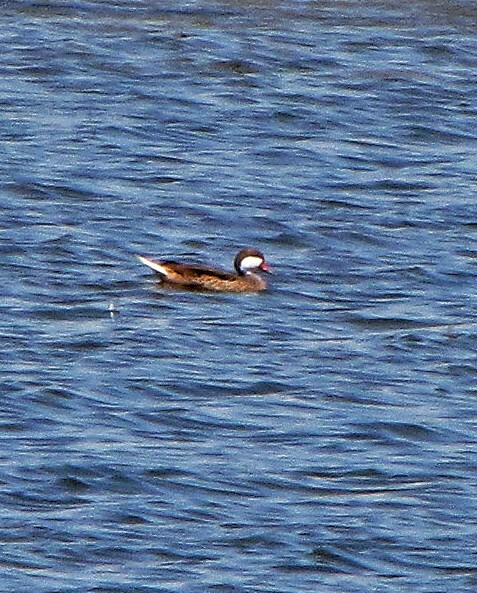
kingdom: Animalia
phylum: Chordata
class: Aves
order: Anseriformes
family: Anatidae
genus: Anas
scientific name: Anas bahamensis
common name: White-cheeked pintail
